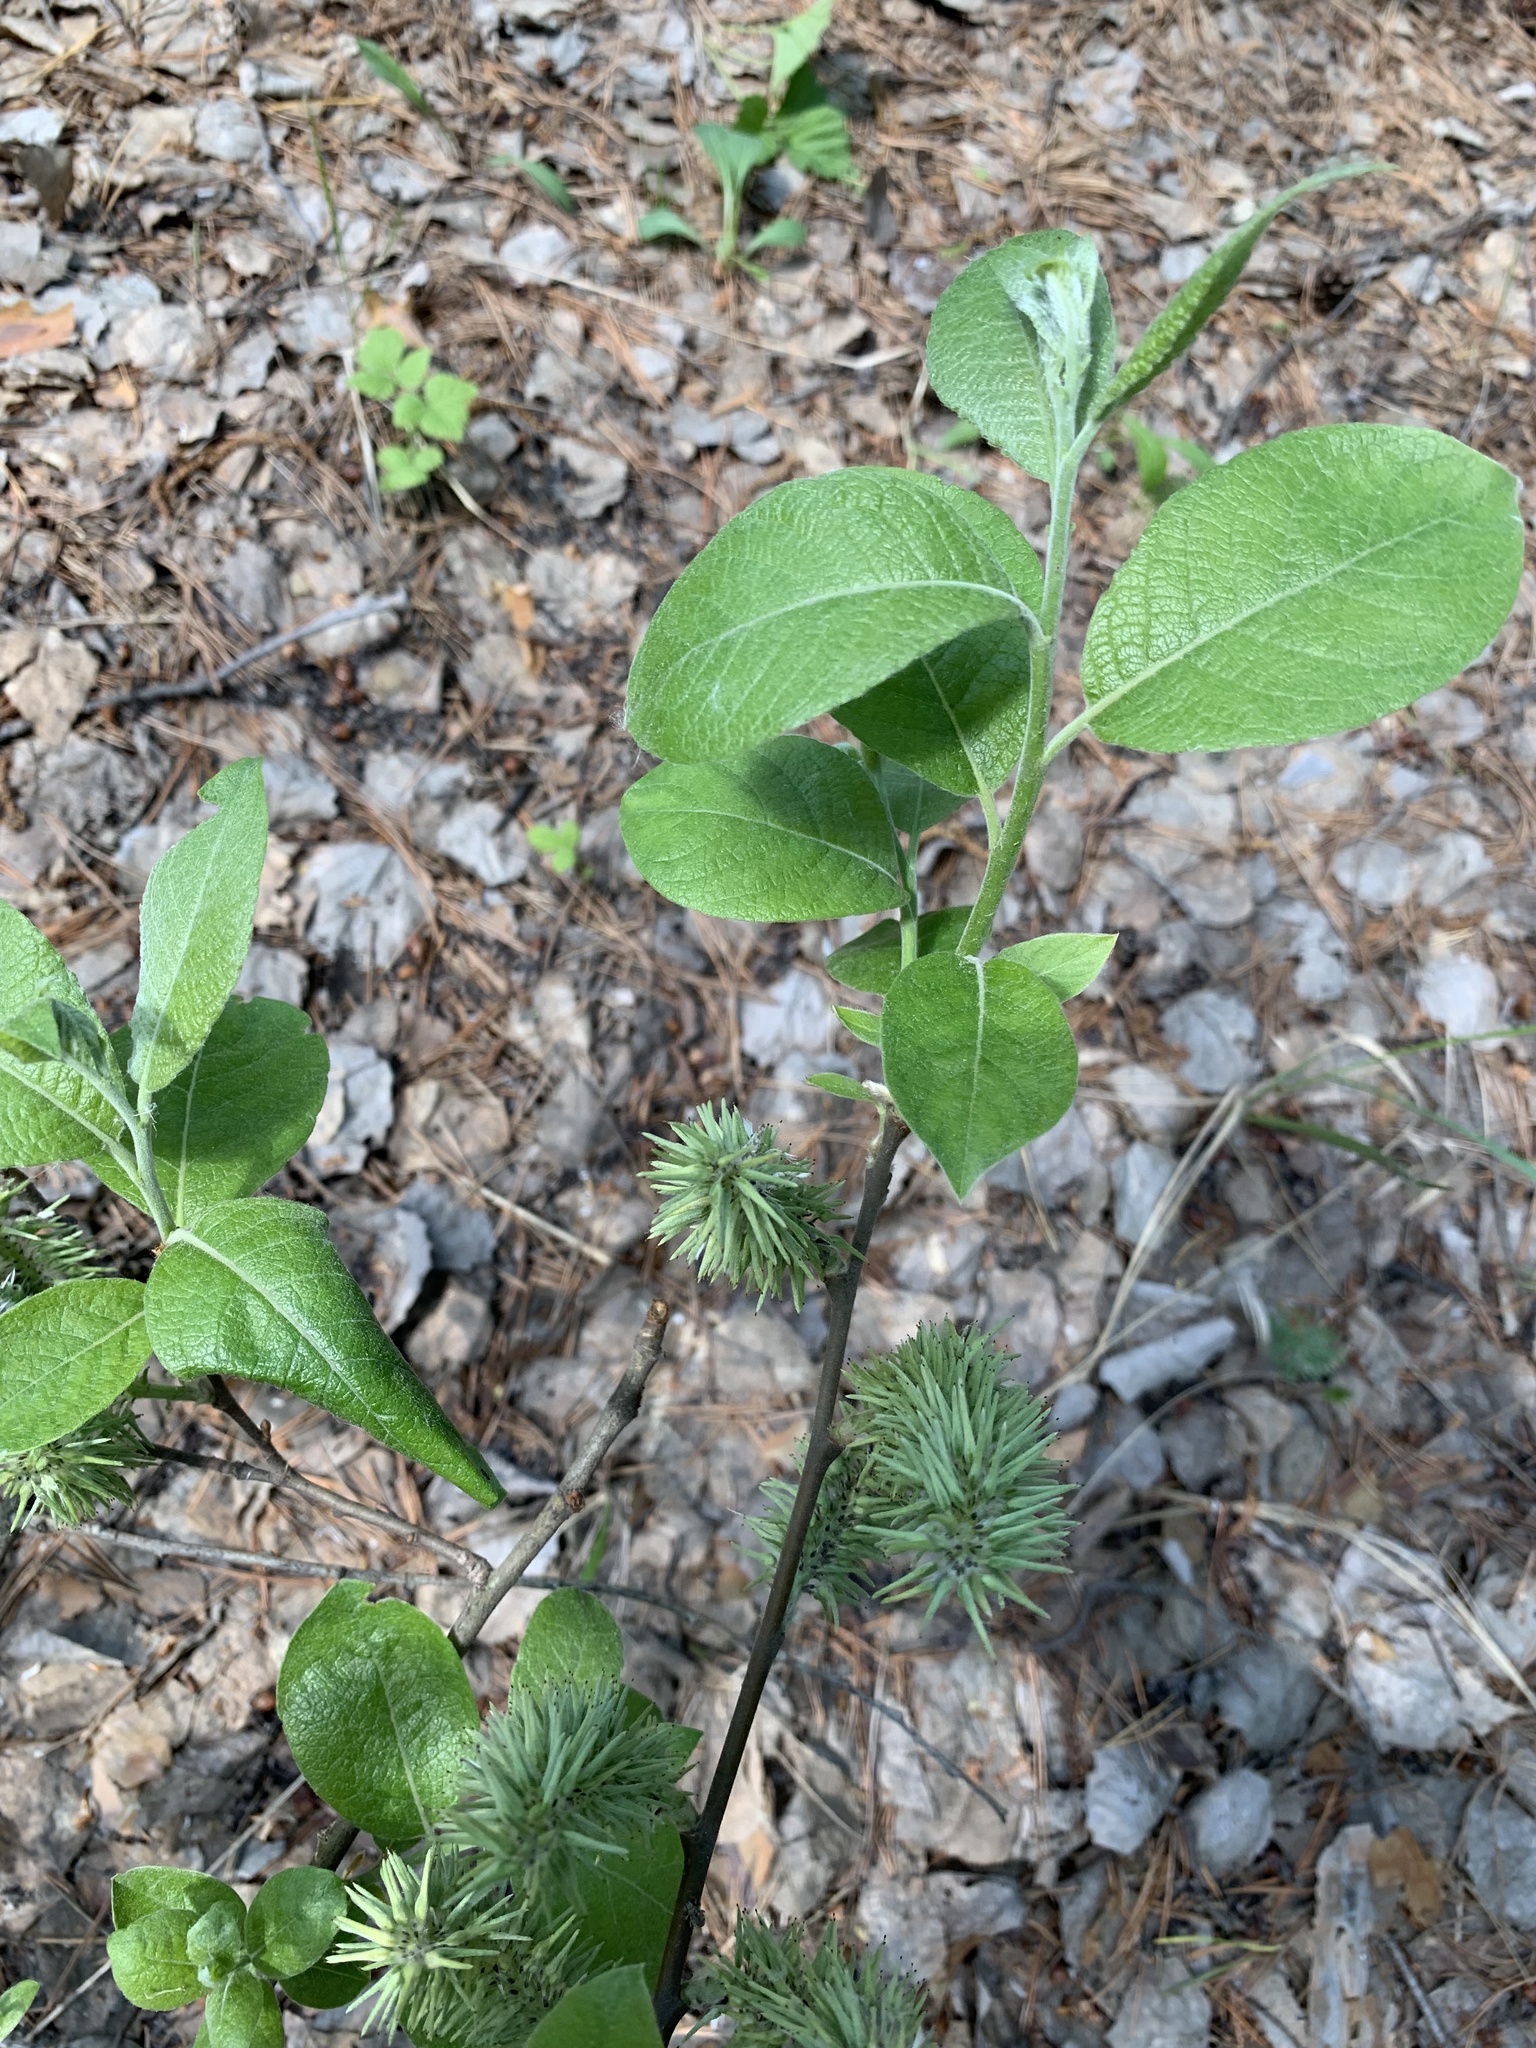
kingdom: Plantae
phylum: Tracheophyta
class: Magnoliopsida
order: Malpighiales
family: Salicaceae
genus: Salix
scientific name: Salix caprea
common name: Goat willow
